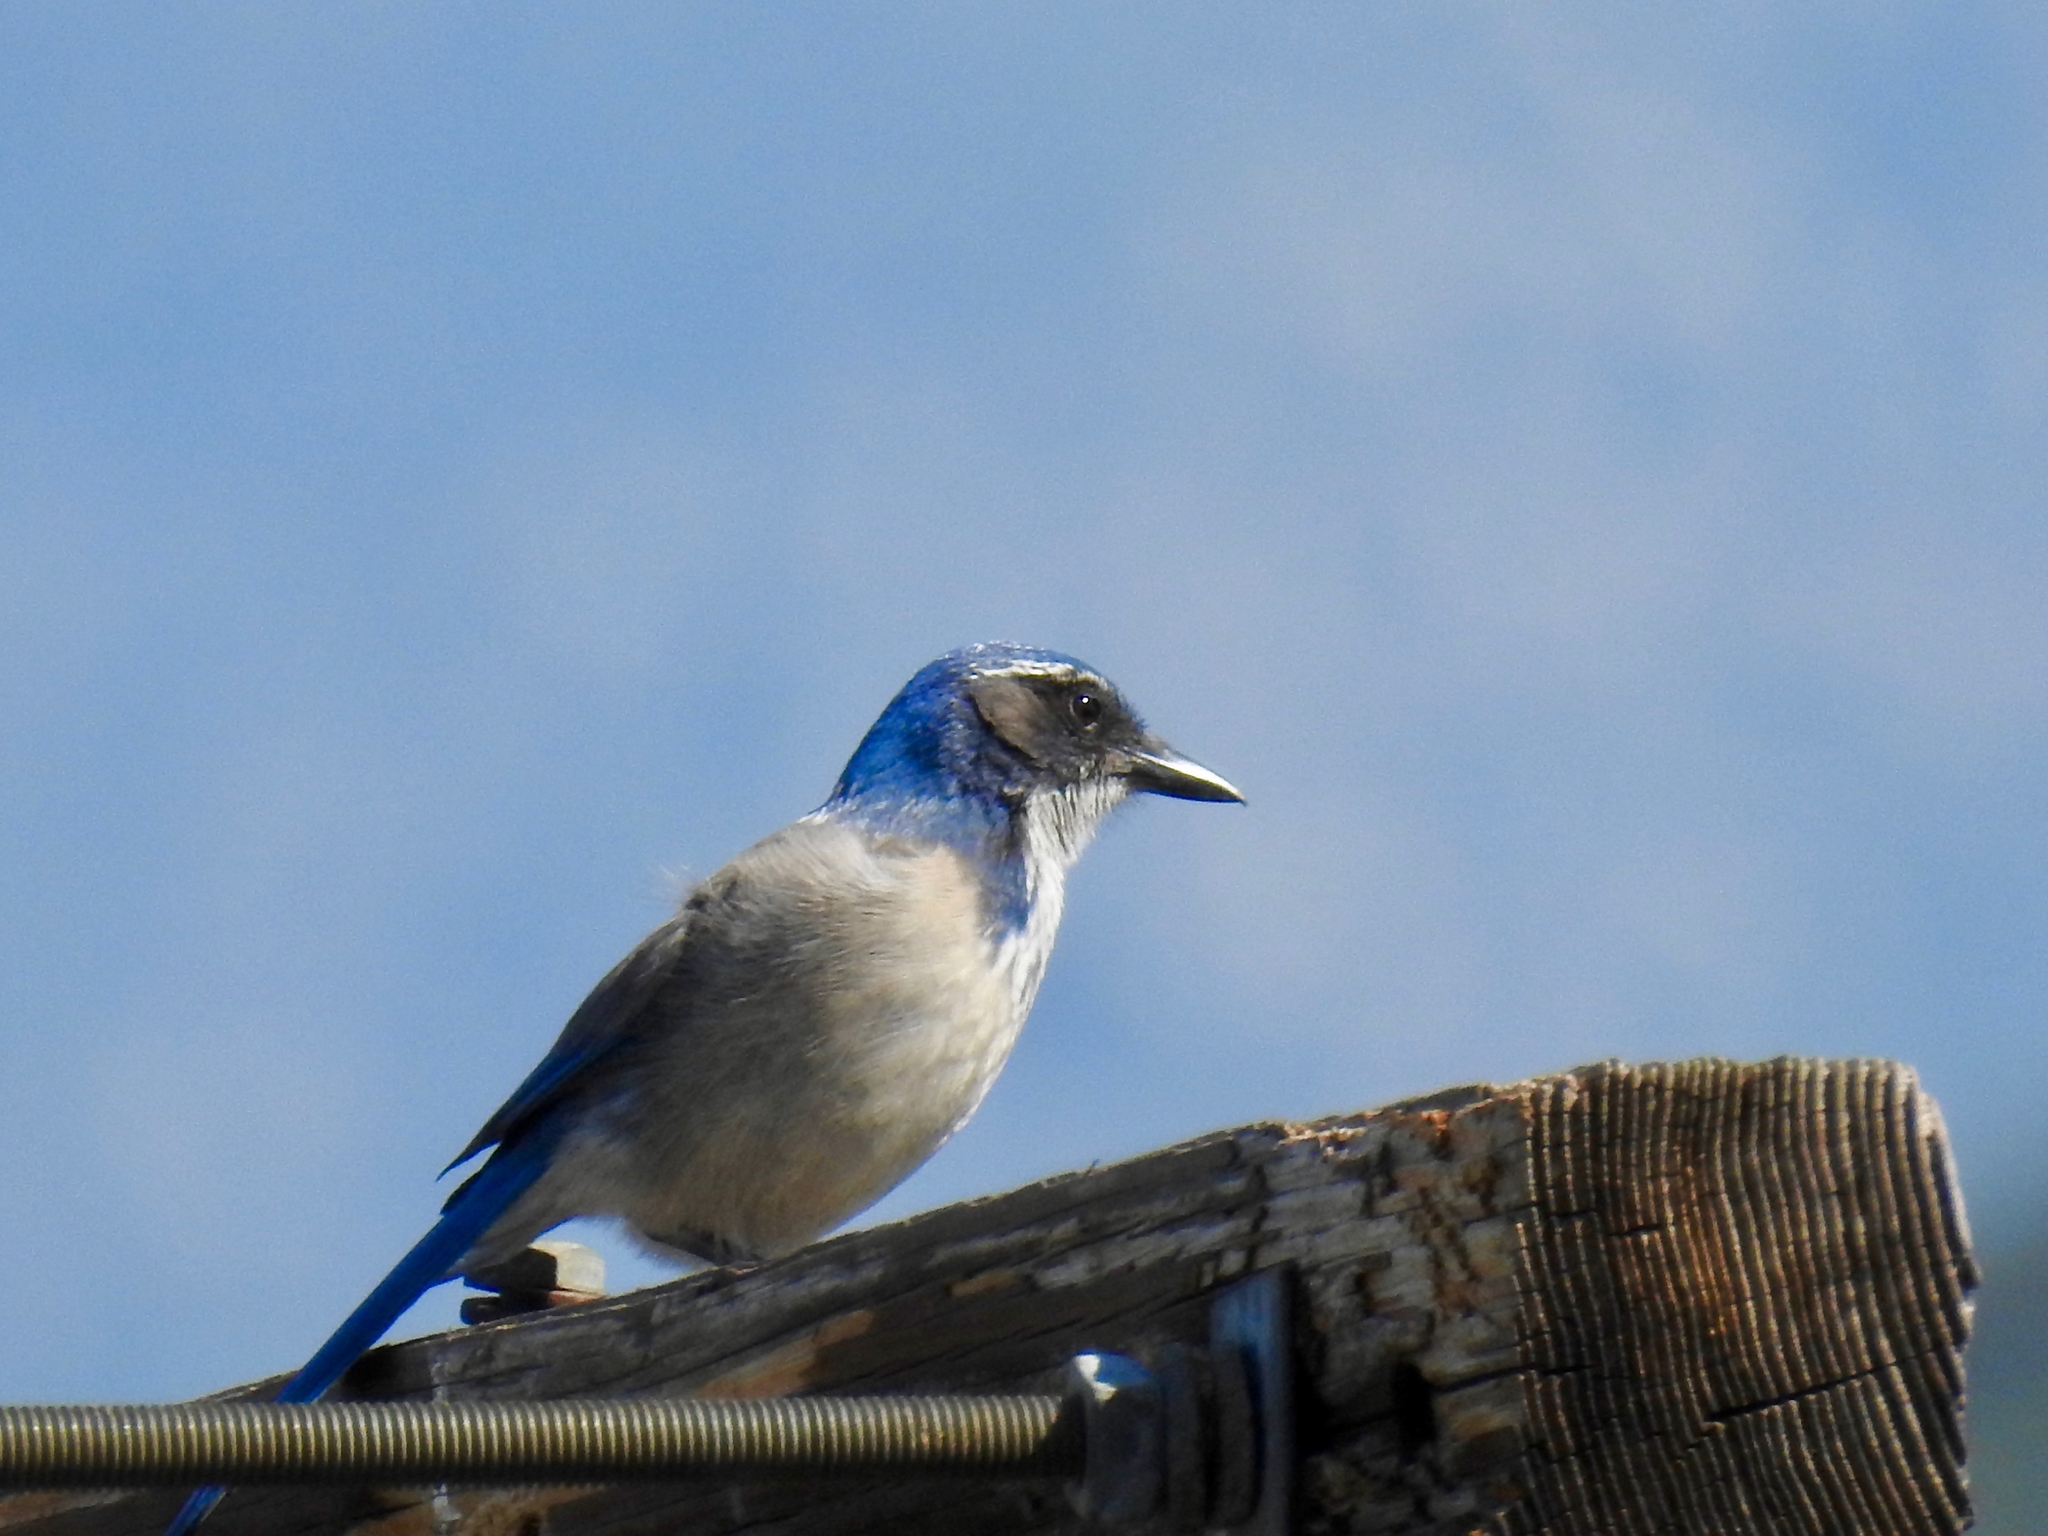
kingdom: Animalia
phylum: Chordata
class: Aves
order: Passeriformes
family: Corvidae
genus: Aphelocoma
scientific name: Aphelocoma californica
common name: California scrub-jay
